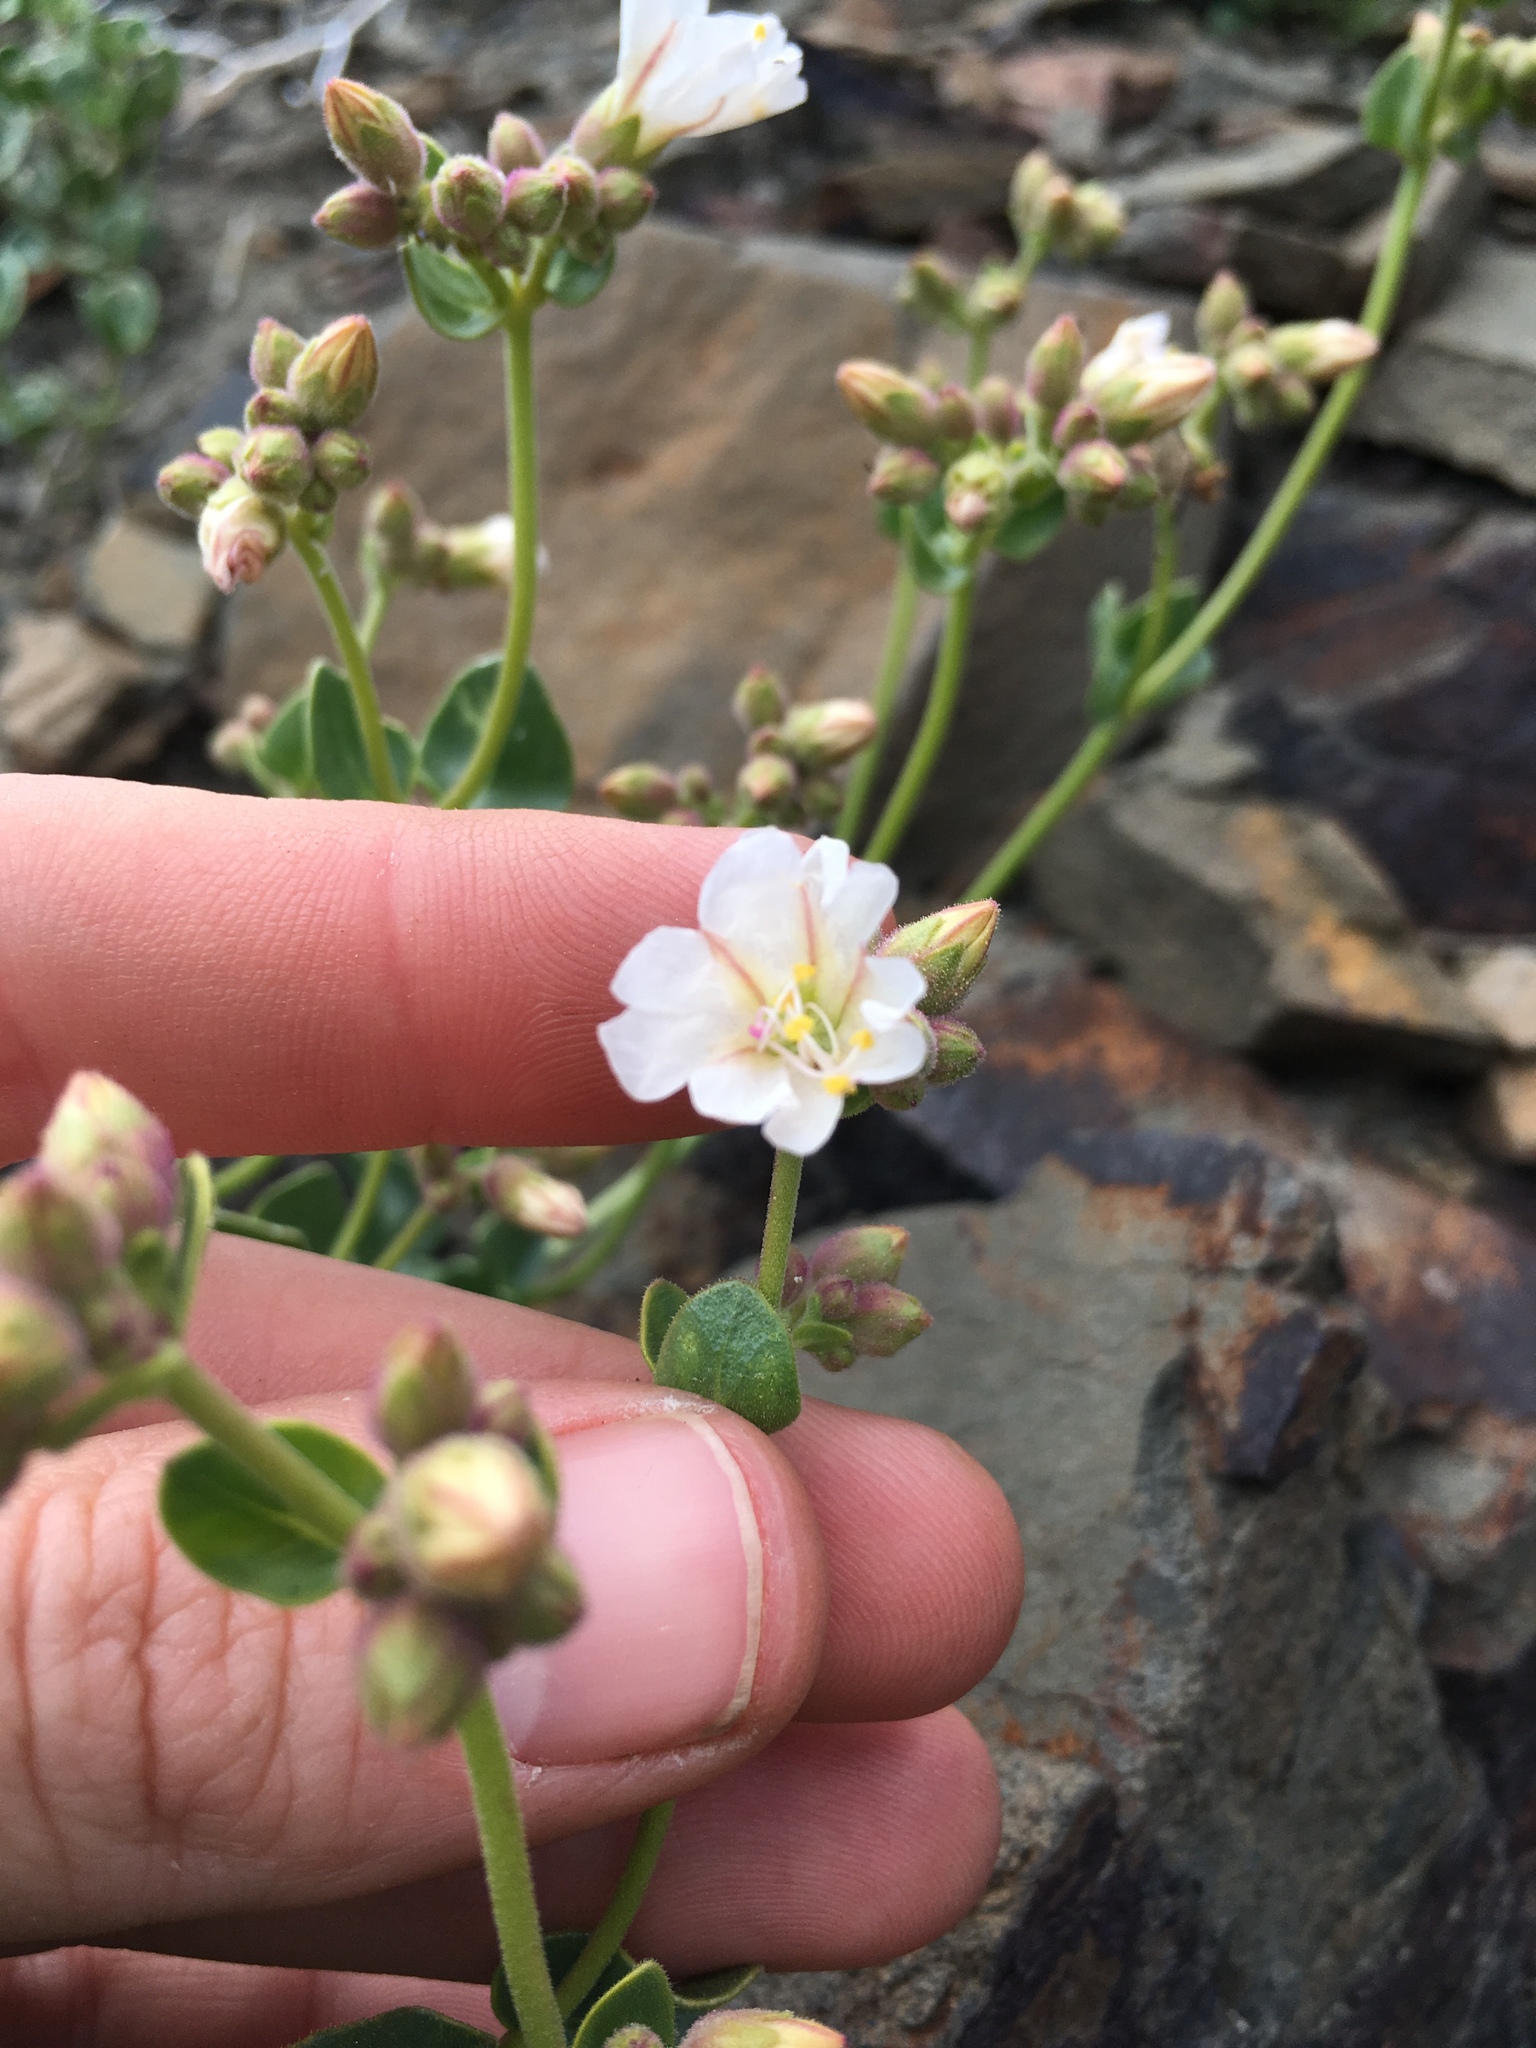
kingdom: Plantae
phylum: Tracheophyta
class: Magnoliopsida
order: Caryophyllales
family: Nyctaginaceae
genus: Mirabilis
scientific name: Mirabilis laevis
